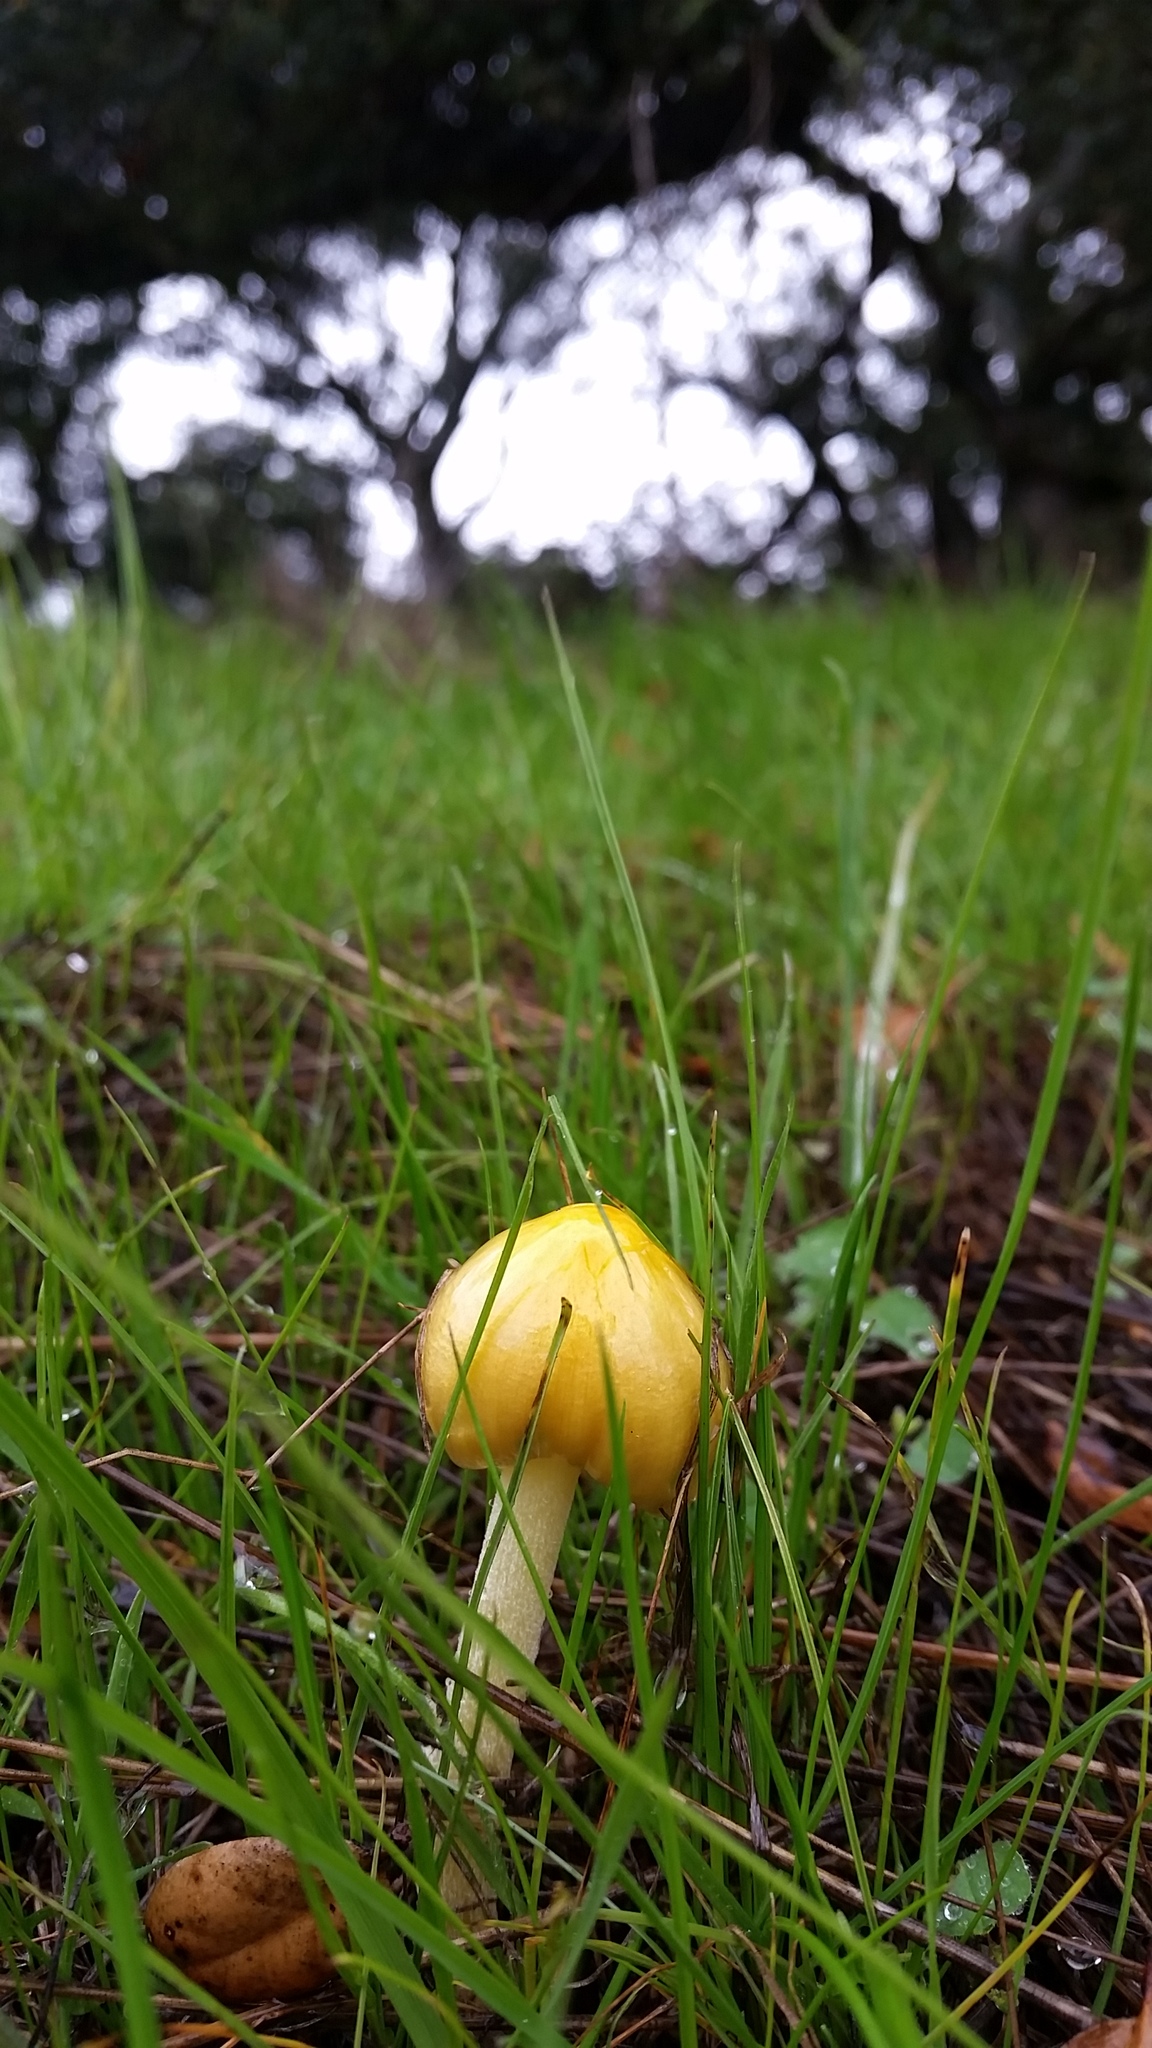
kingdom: Fungi
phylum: Basidiomycota
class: Agaricomycetes
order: Agaricales
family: Bolbitiaceae
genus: Bolbitius
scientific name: Bolbitius titubans
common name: Yellow fieldcap
